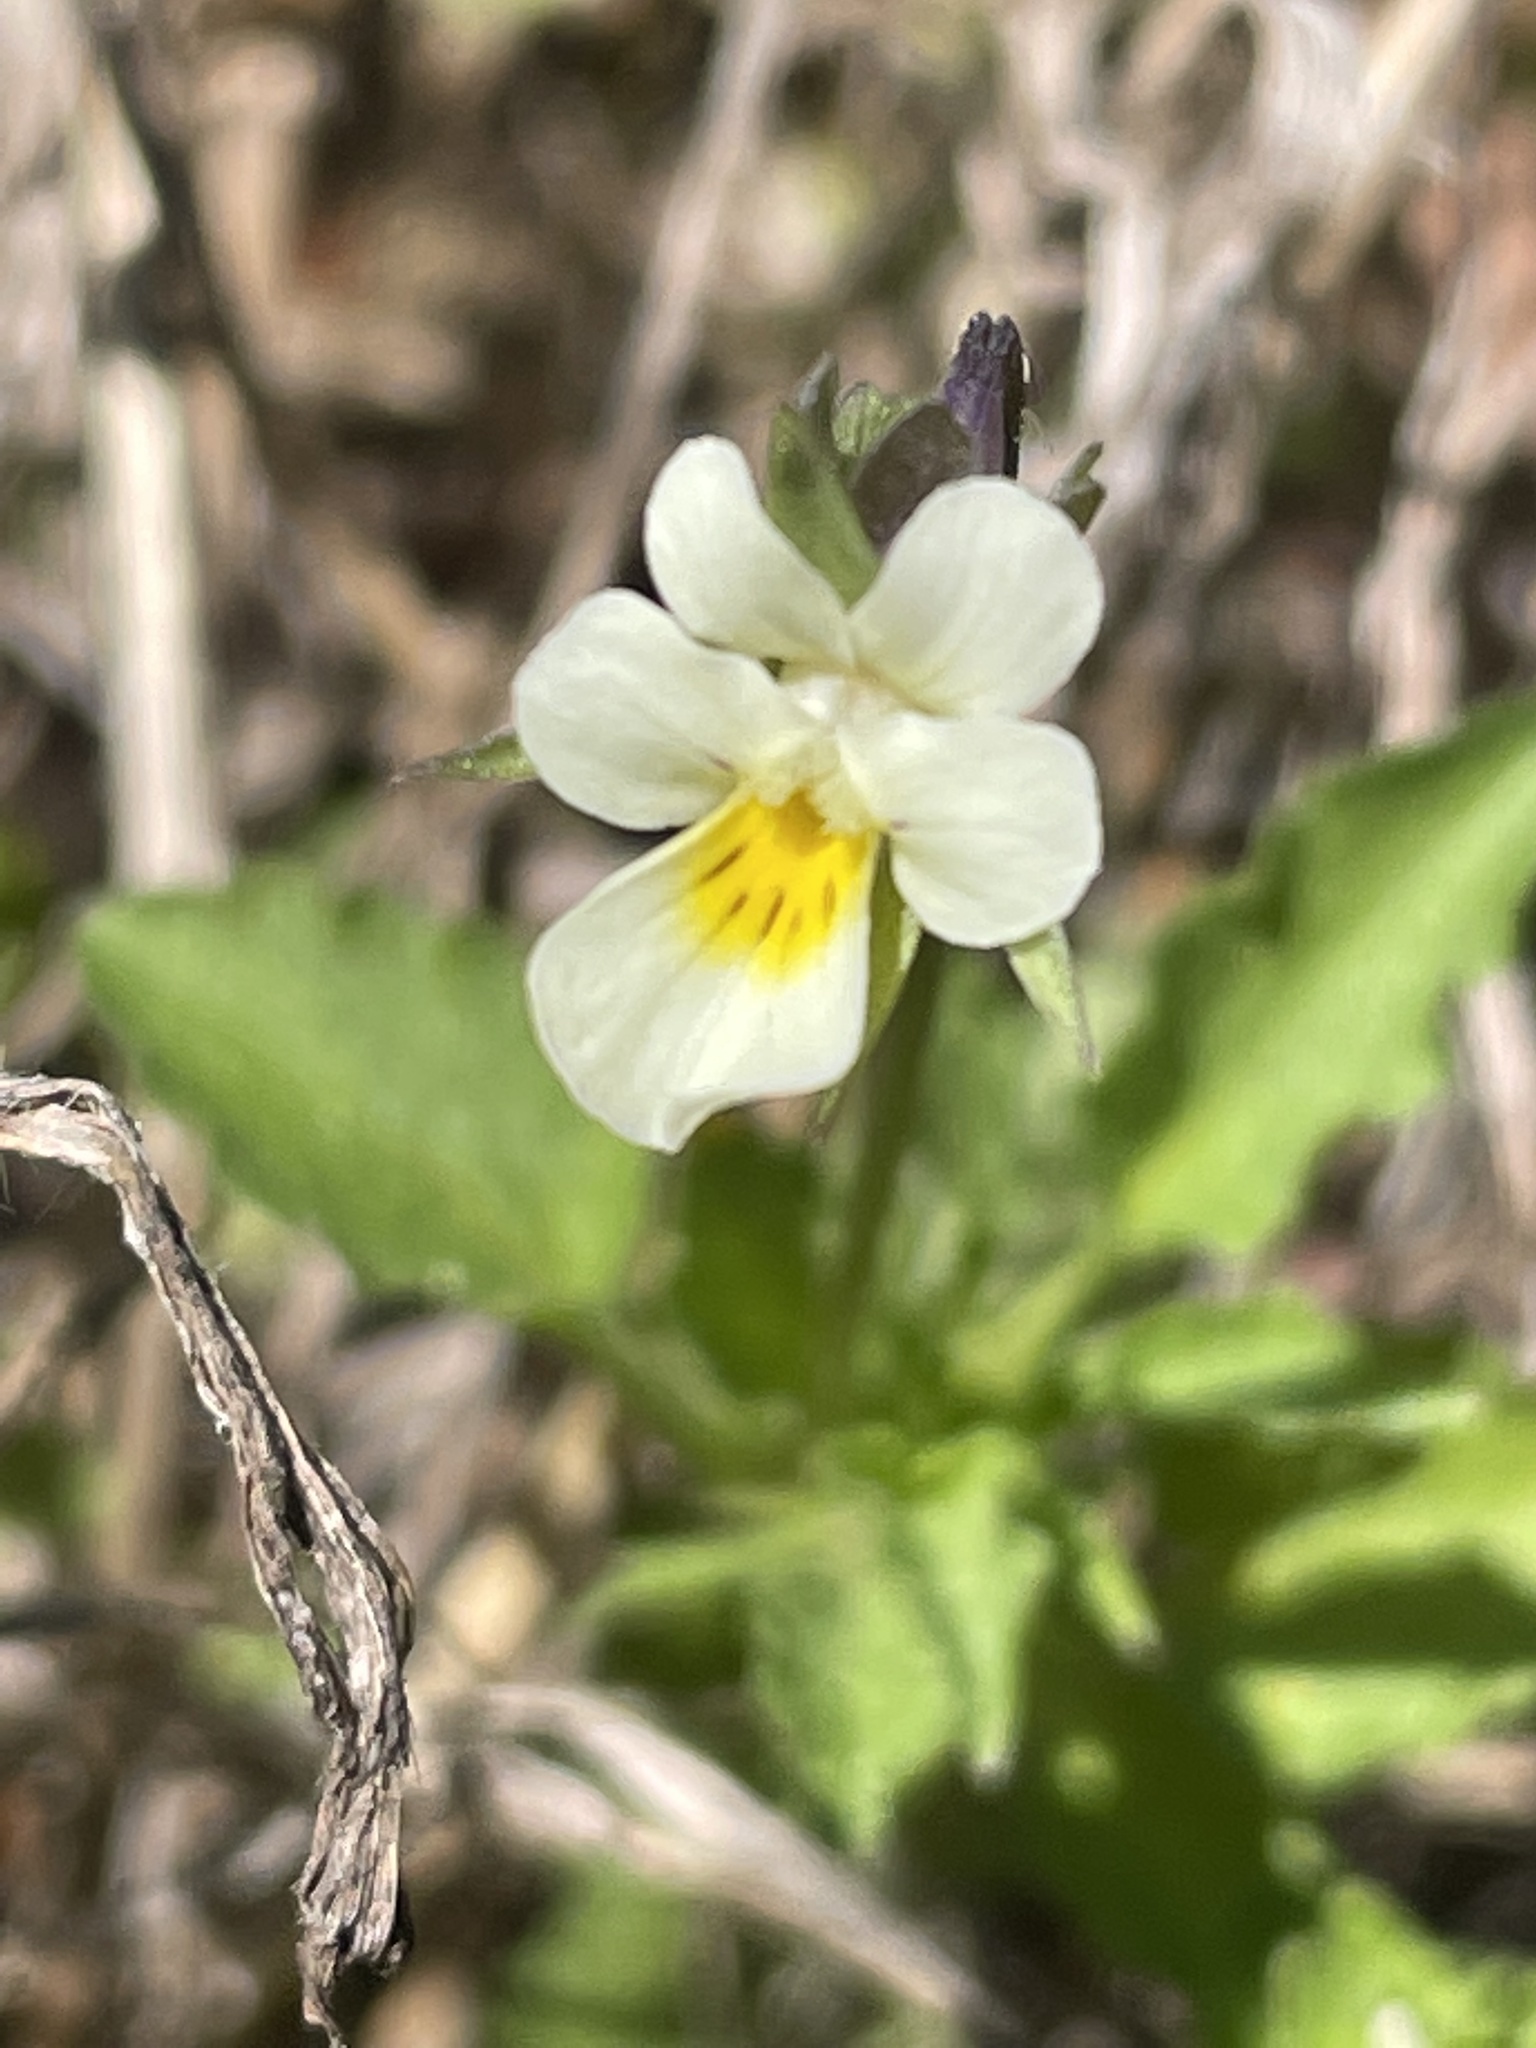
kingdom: Plantae
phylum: Tracheophyta
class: Magnoliopsida
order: Malpighiales
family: Violaceae
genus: Viola
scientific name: Viola arvensis
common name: Field pansy
